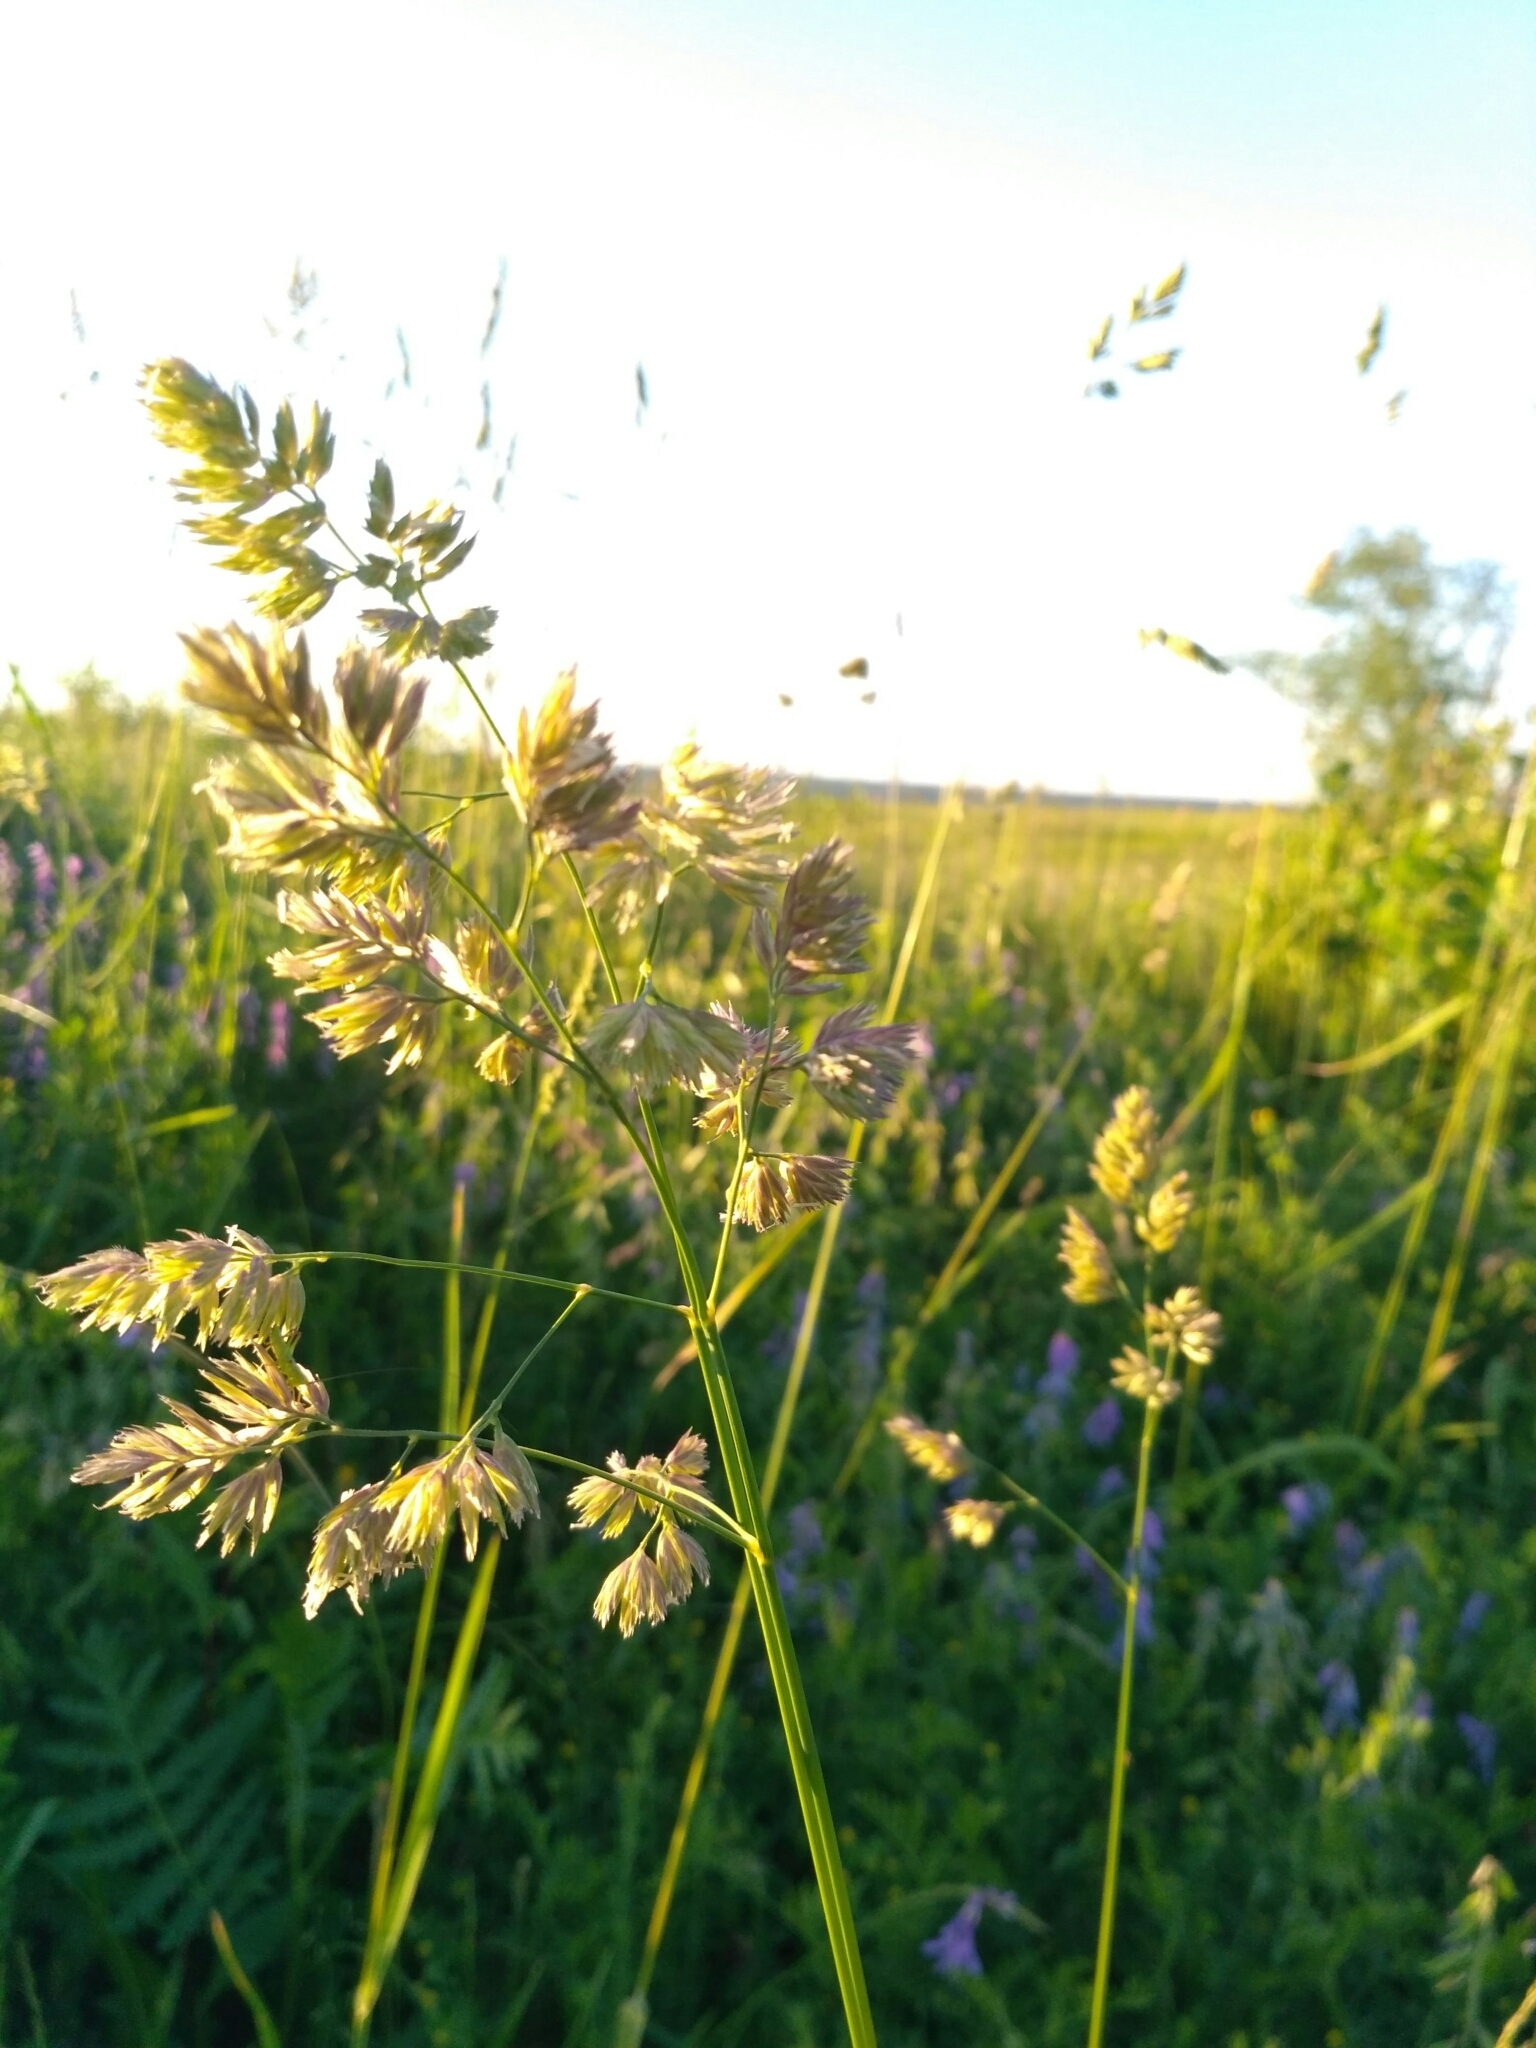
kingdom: Plantae
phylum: Tracheophyta
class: Liliopsida
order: Poales
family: Poaceae
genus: Dactylis
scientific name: Dactylis glomerata
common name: Orchardgrass
